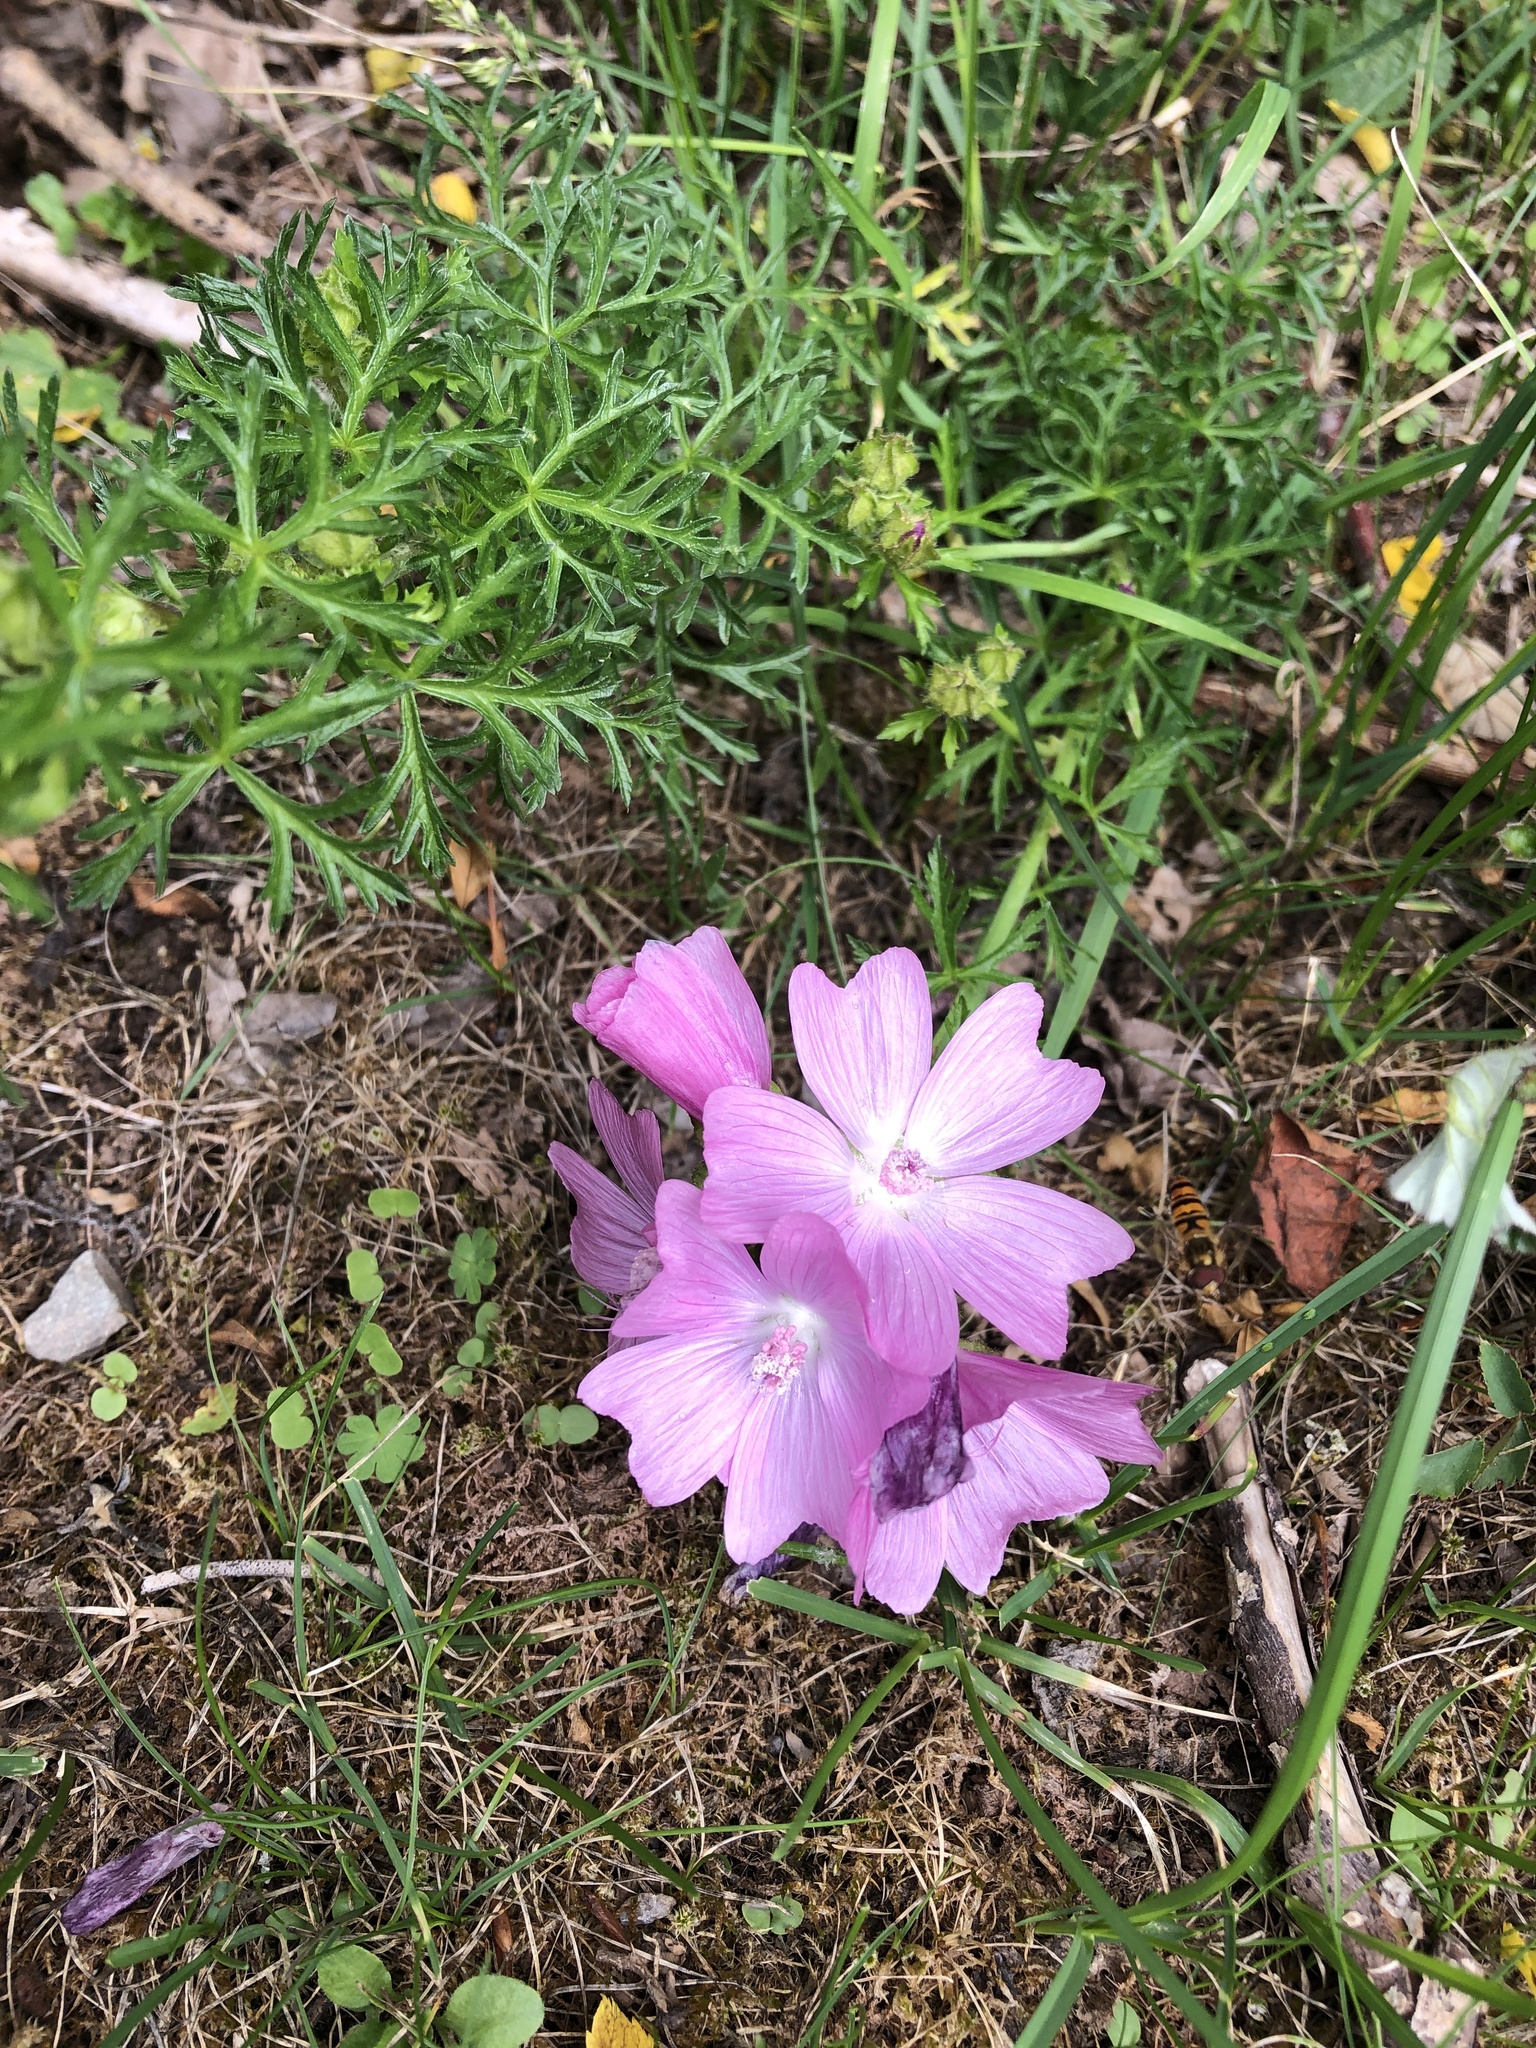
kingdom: Plantae
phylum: Tracheophyta
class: Magnoliopsida
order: Malvales
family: Malvaceae
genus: Malva
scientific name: Malva moschata
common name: Musk mallow
